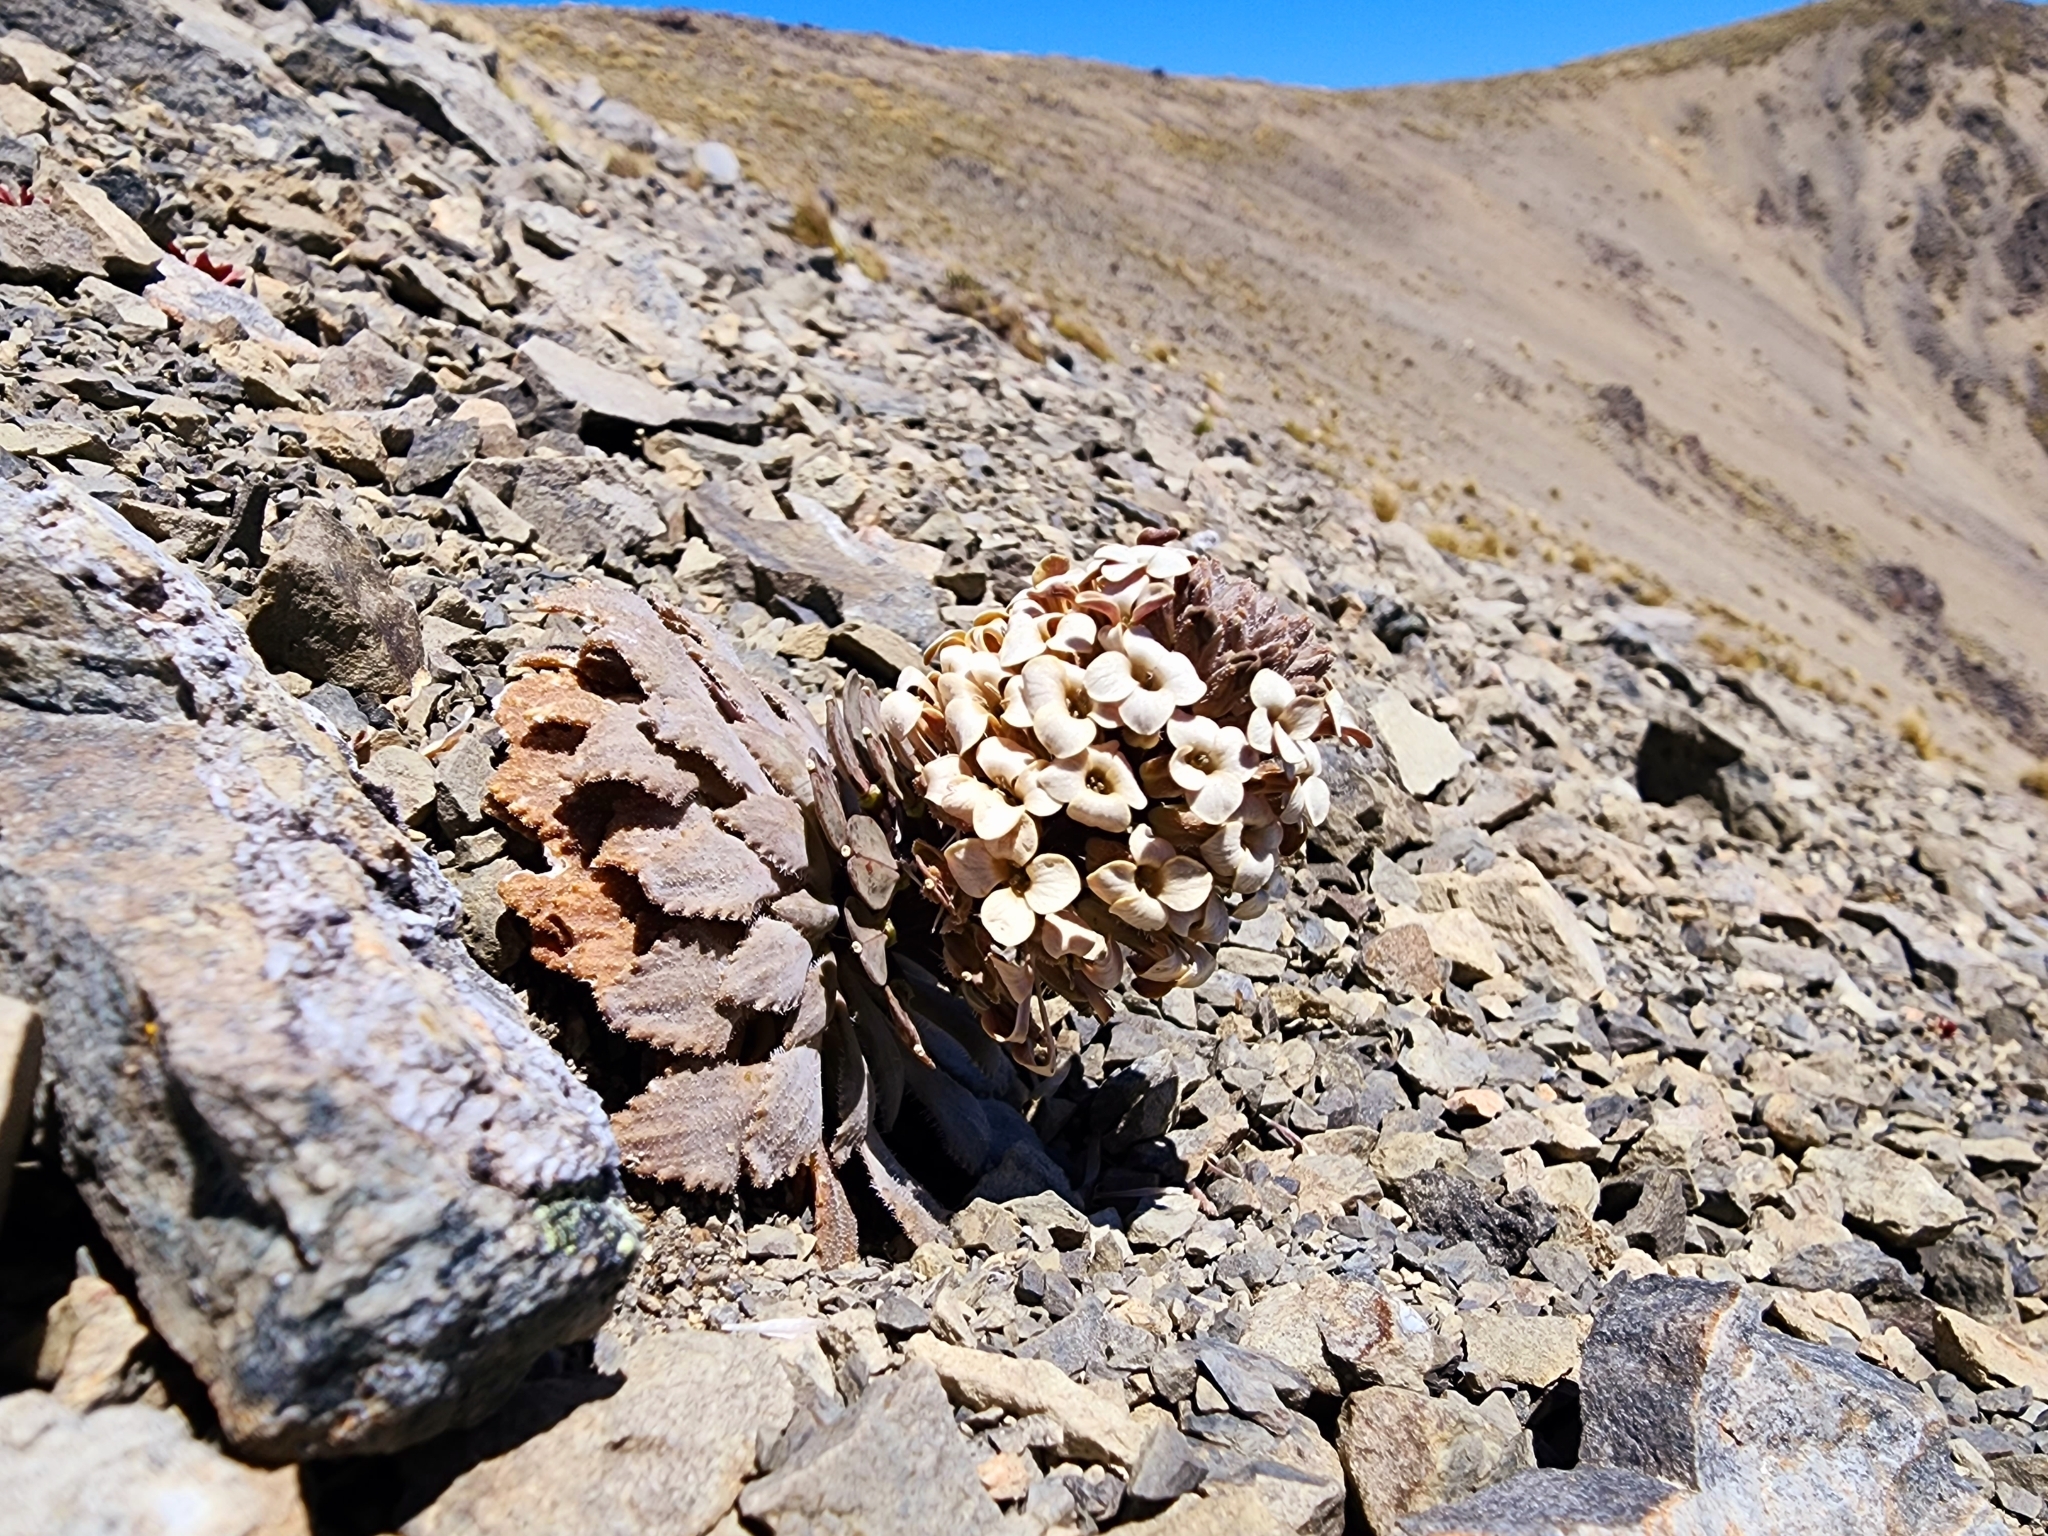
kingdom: Plantae
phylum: Tracheophyta
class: Magnoliopsida
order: Brassicales
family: Brassicaceae
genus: Notothlaspi
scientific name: Notothlaspi rosulatum
